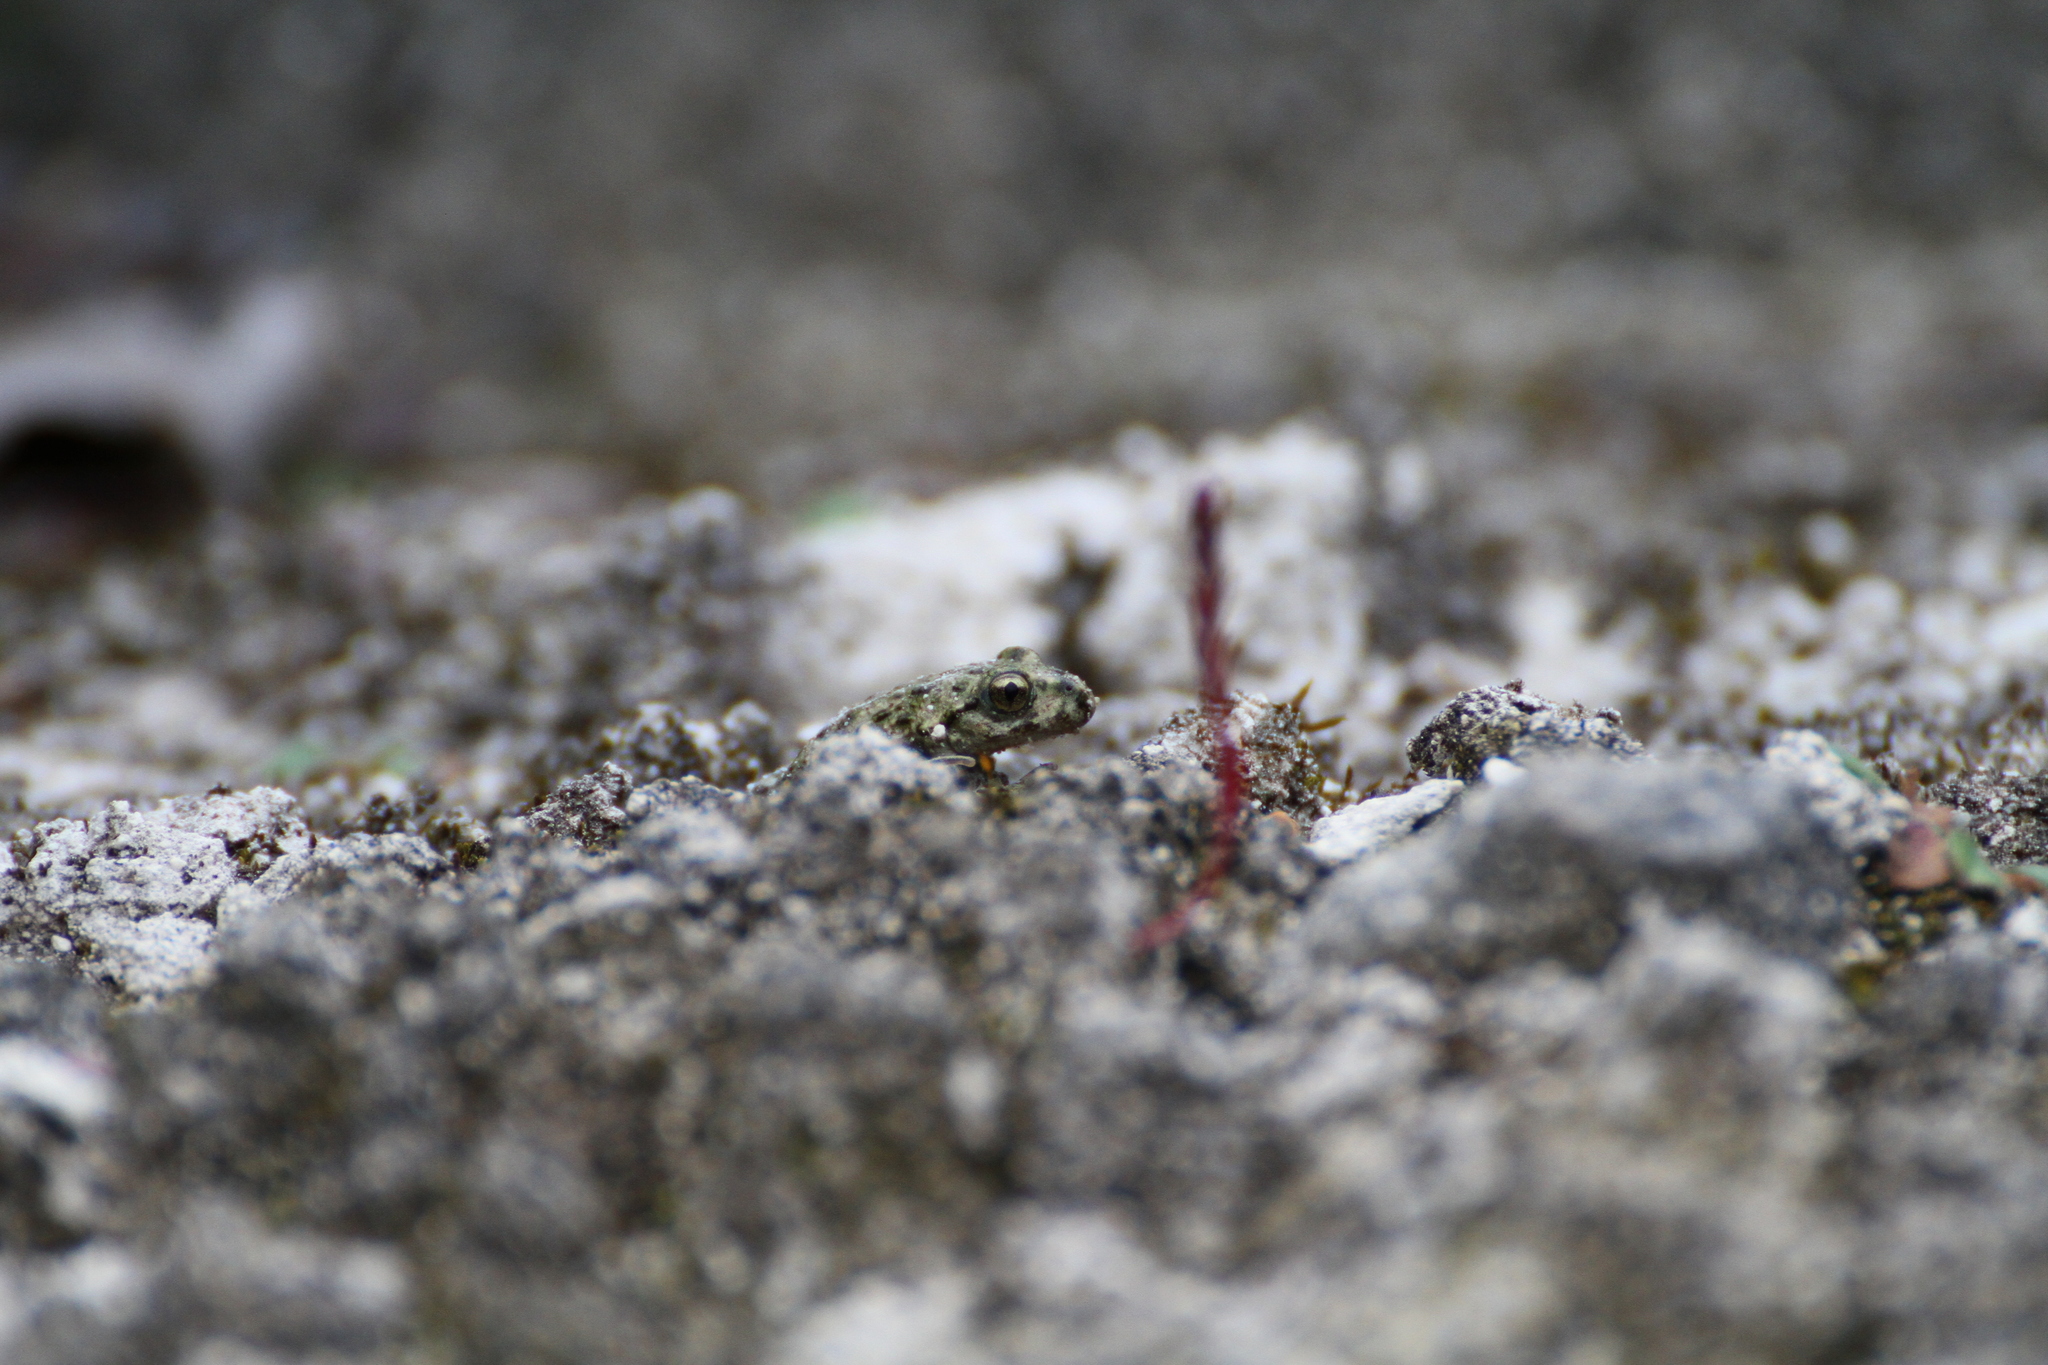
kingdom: Animalia
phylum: Chordata
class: Amphibia
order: Anura
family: Pelodytidae
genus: Pelodytes
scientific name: Pelodytes punctatus
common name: Parsley frog
